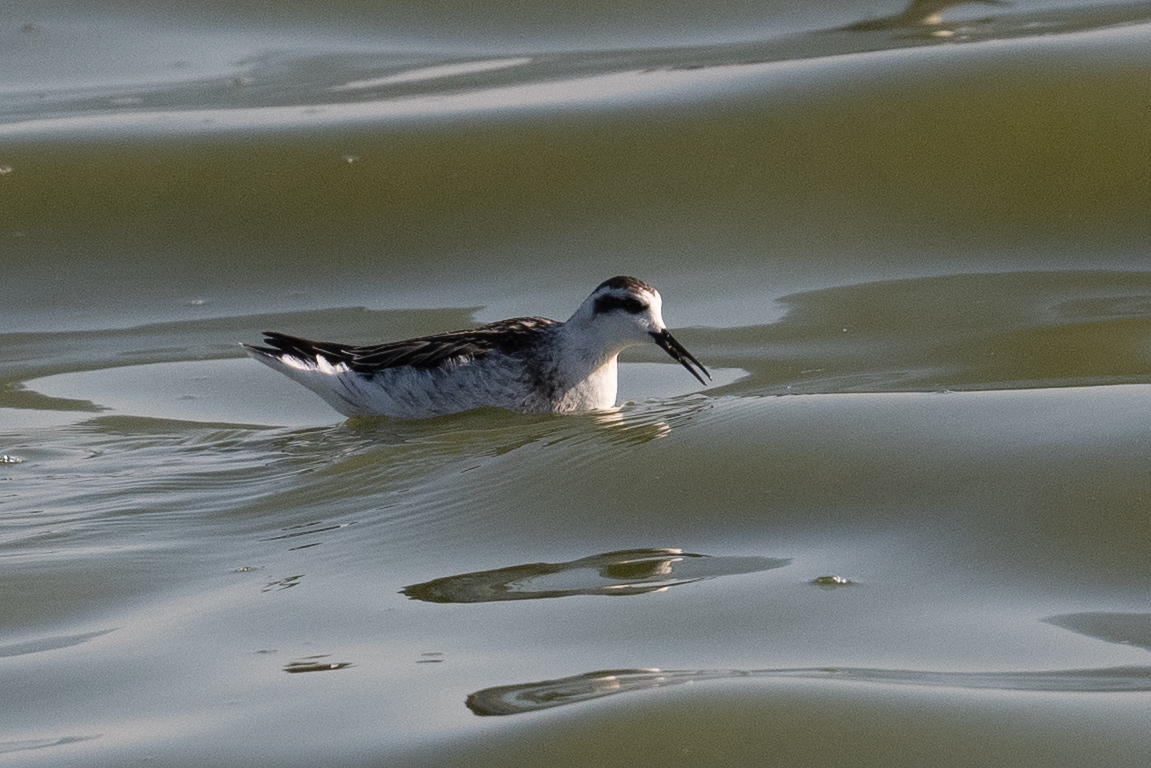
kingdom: Animalia
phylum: Chordata
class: Aves
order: Charadriiformes
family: Scolopacidae
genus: Phalaropus
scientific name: Phalaropus lobatus
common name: Red-necked phalarope
